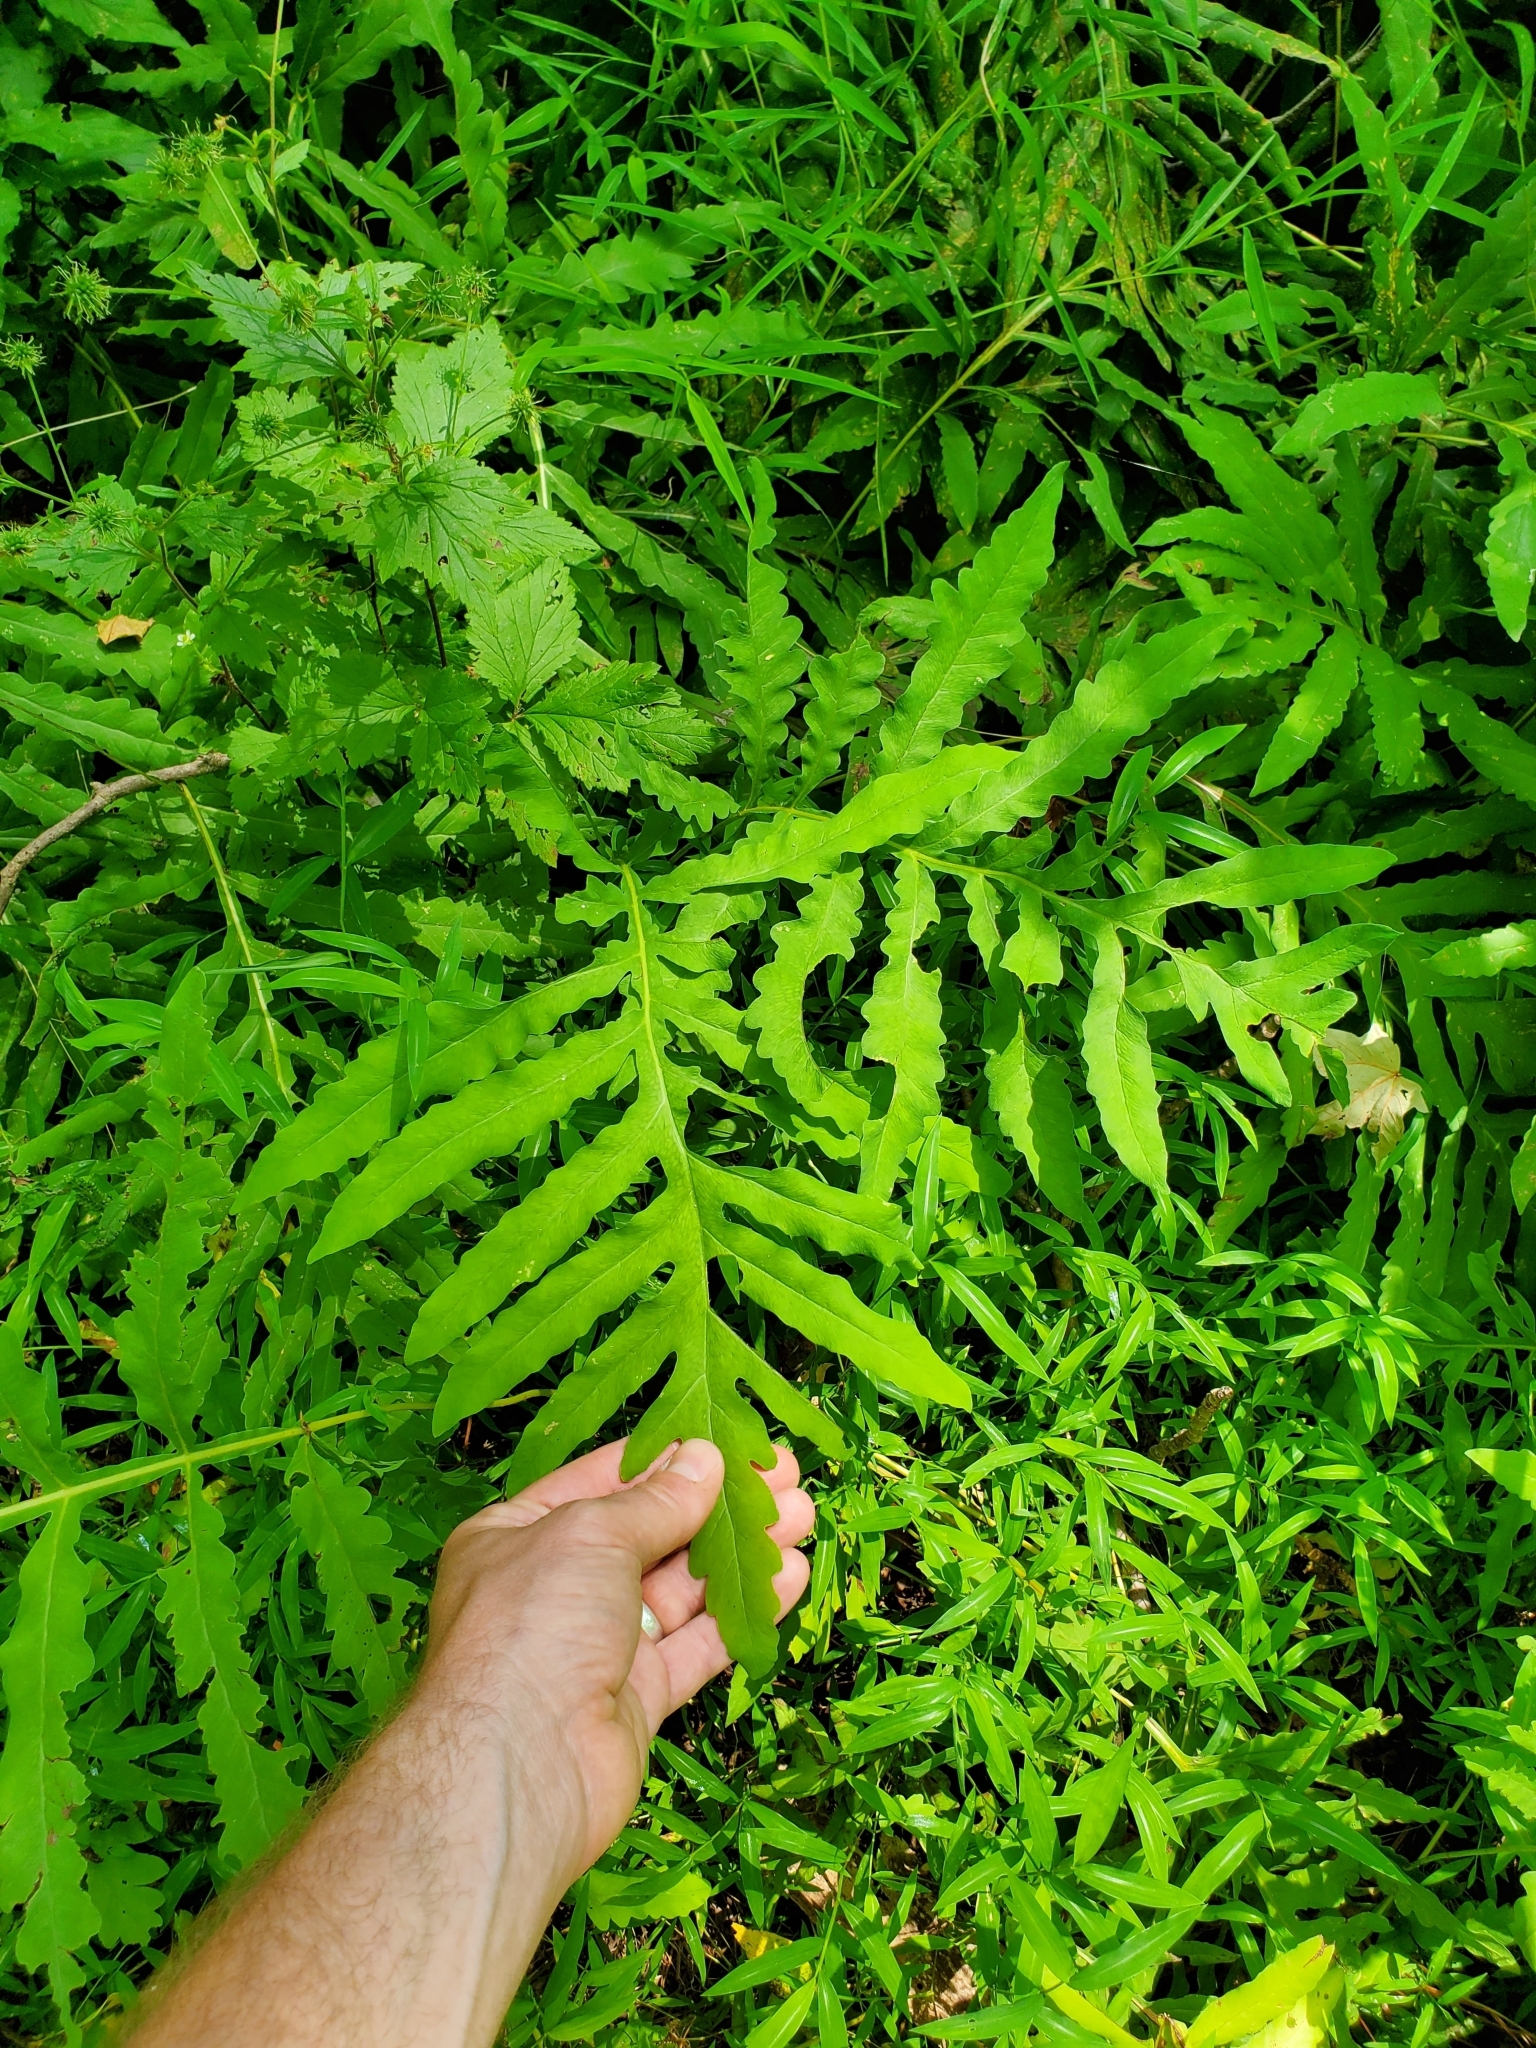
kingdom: Plantae
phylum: Tracheophyta
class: Polypodiopsida
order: Polypodiales
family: Onocleaceae
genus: Onoclea
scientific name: Onoclea sensibilis
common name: Sensitive fern
